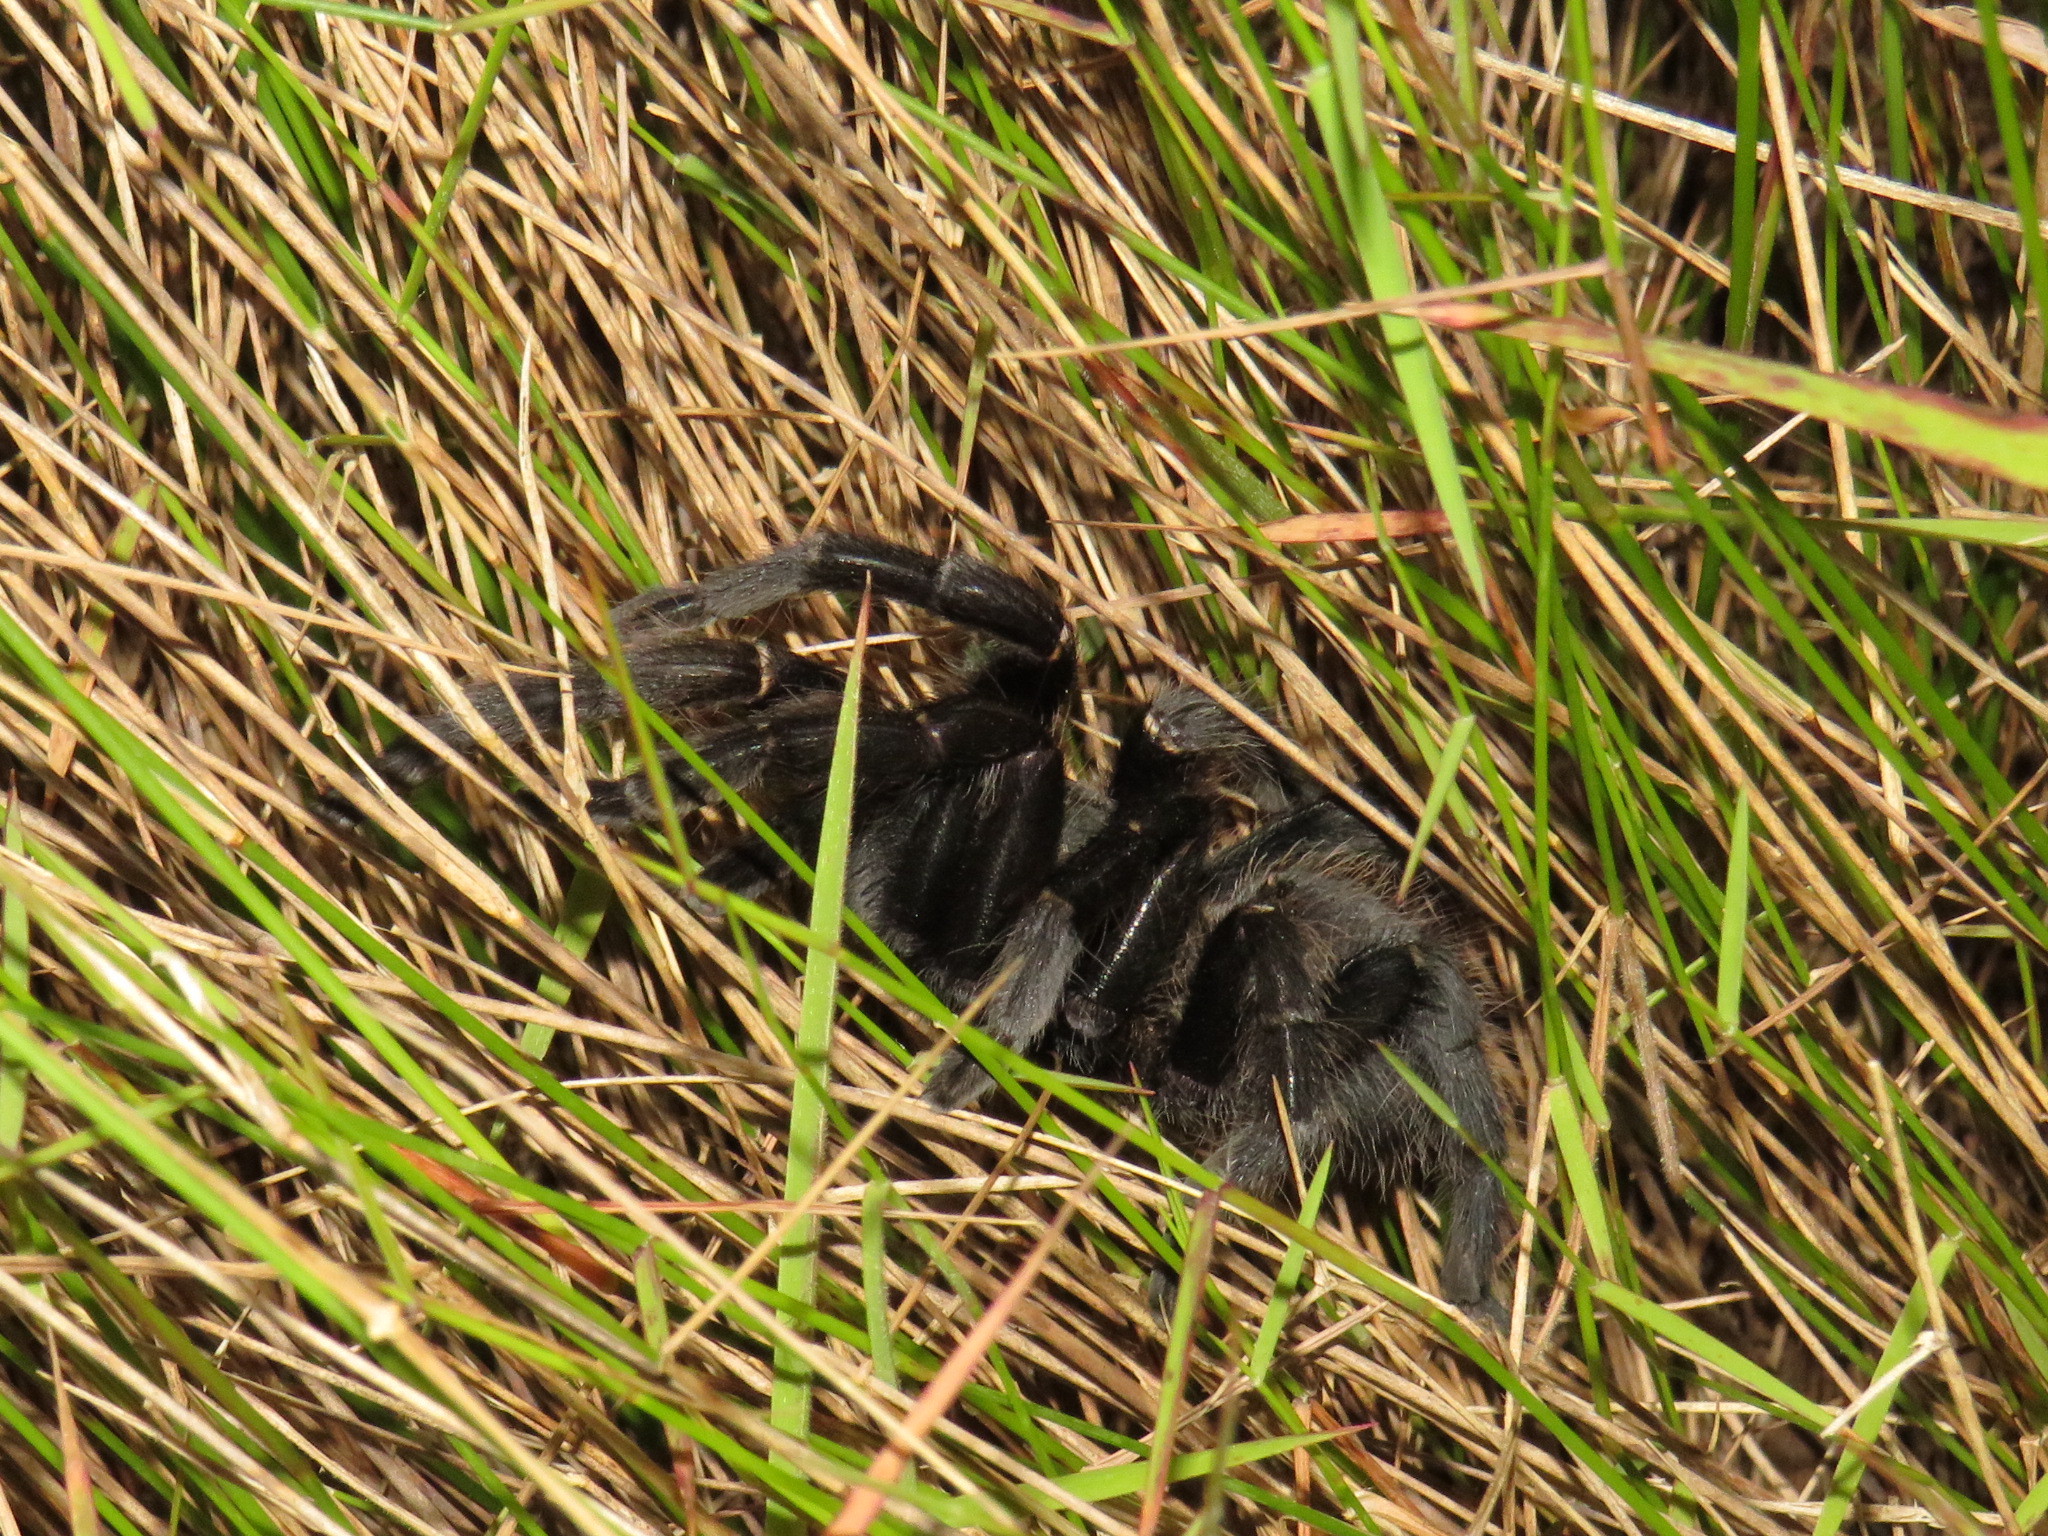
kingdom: Animalia
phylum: Arthropoda
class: Arachnida
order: Araneae
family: Theraphosidae
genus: Harpactira
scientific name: Harpactira atra
